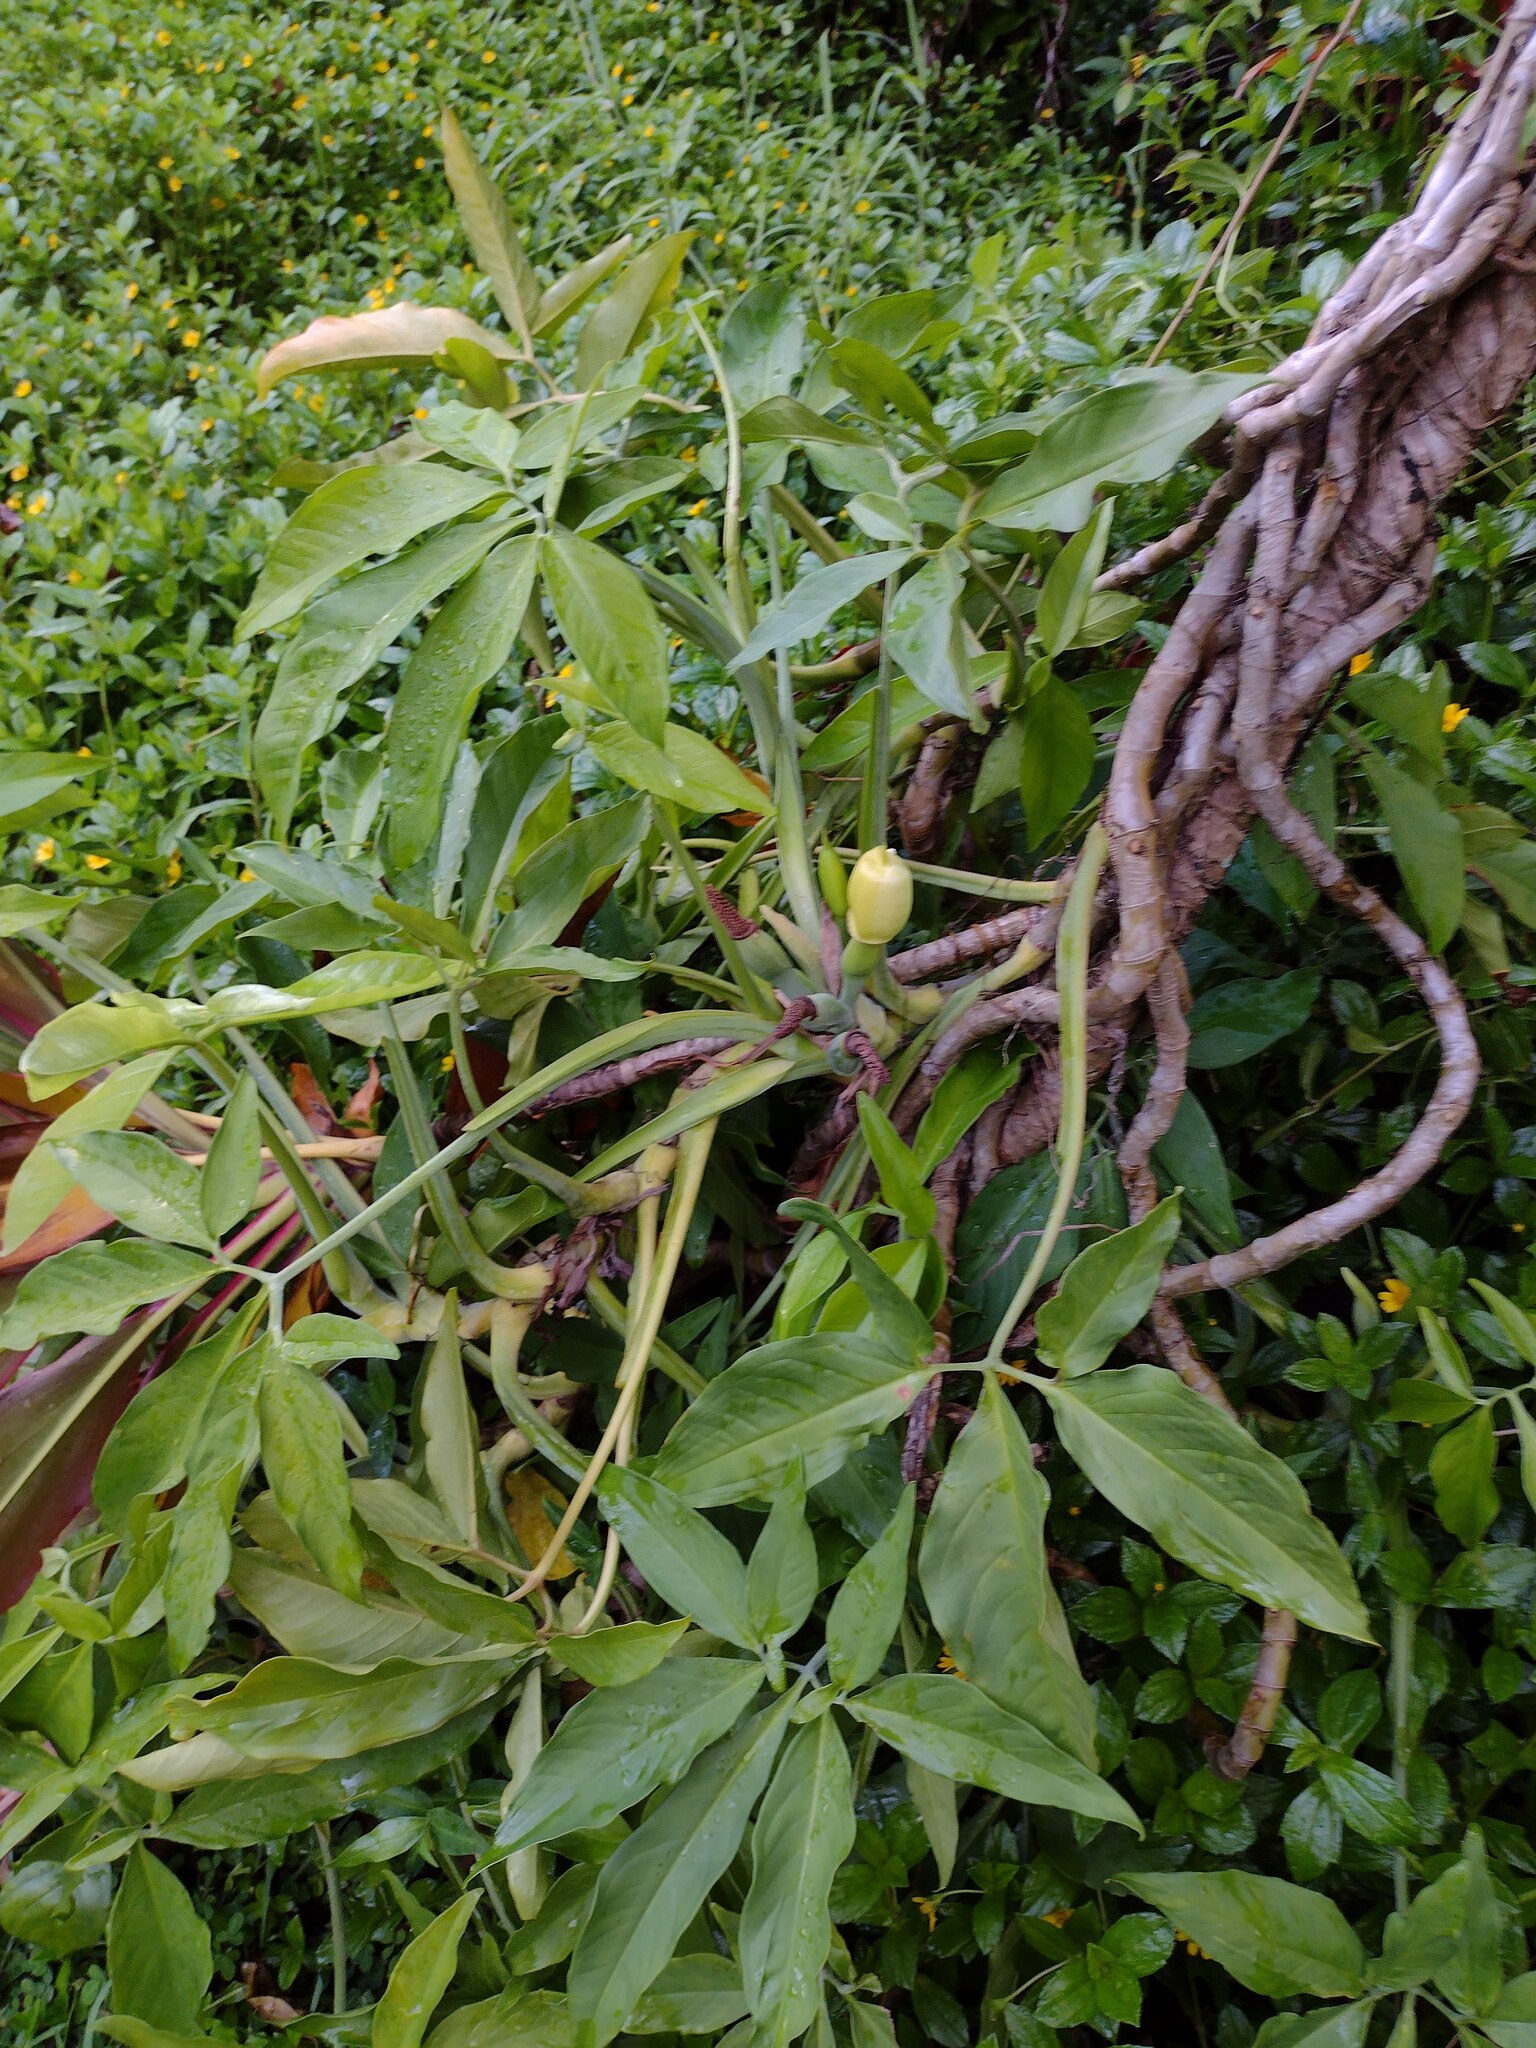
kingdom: Plantae
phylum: Tracheophyta
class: Liliopsida
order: Alismatales
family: Araceae
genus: Syngonium
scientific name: Syngonium podophyllum
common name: American evergreen
